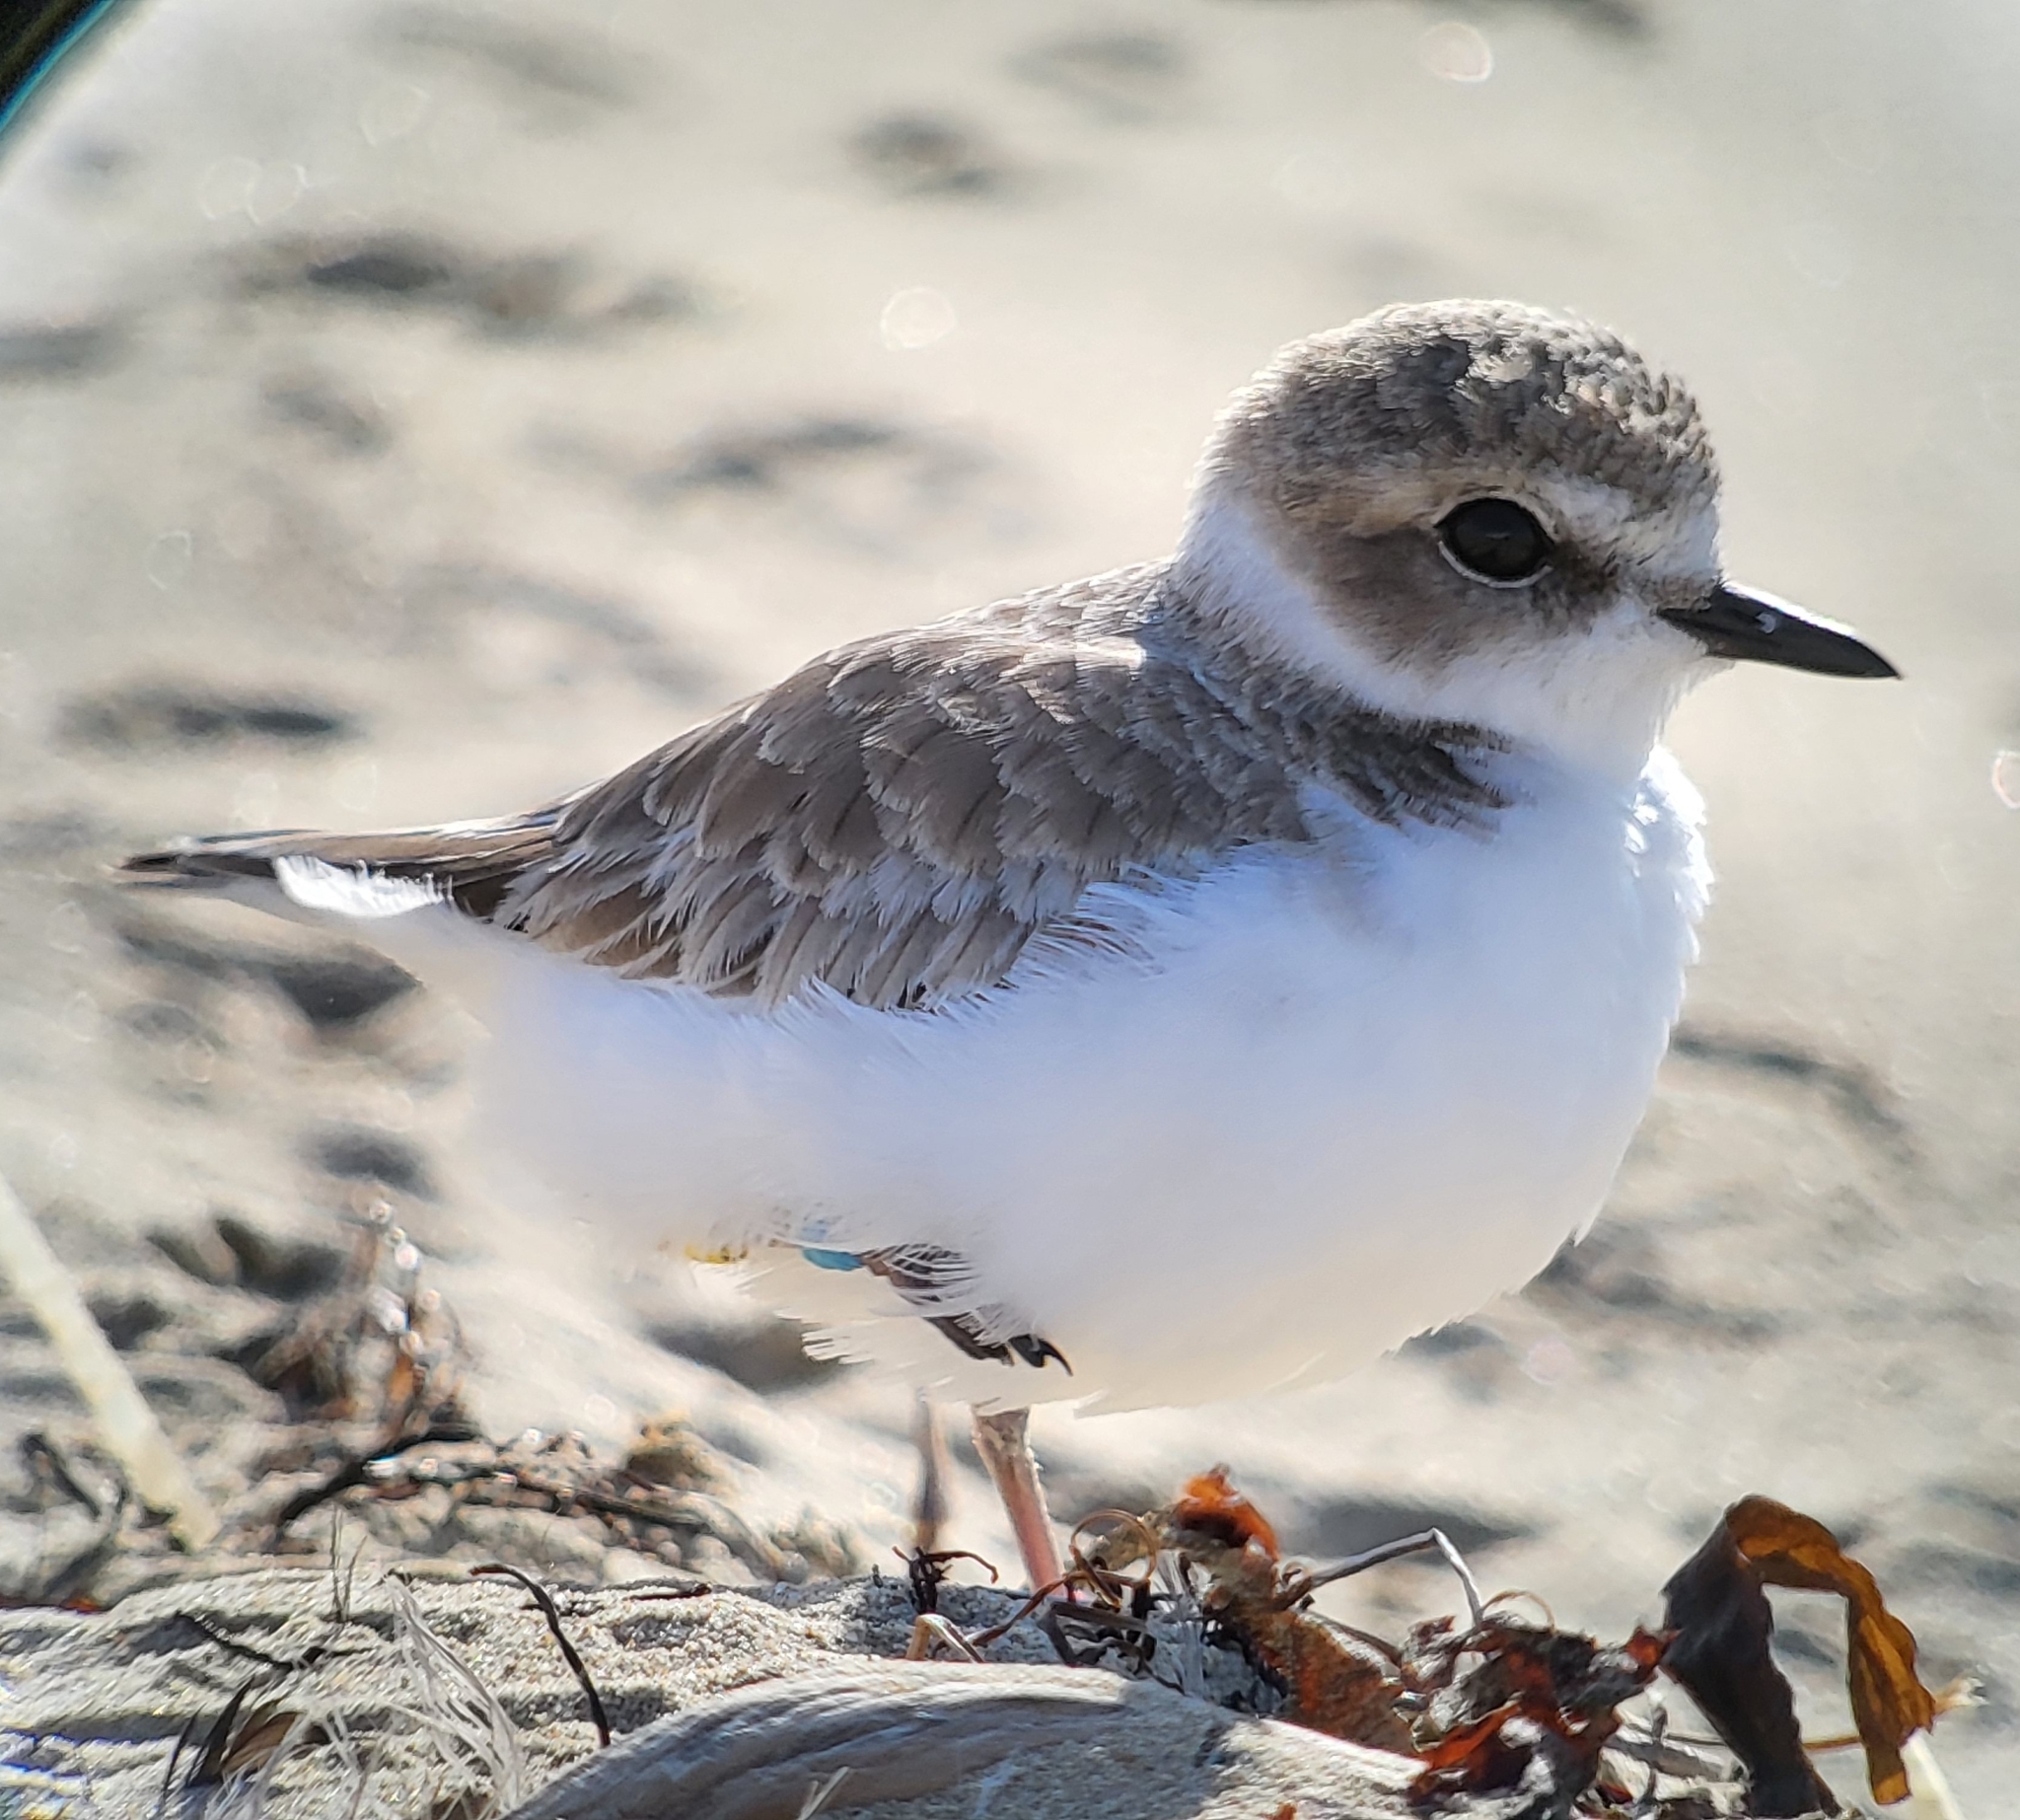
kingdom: Animalia
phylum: Chordata
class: Aves
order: Charadriiformes
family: Charadriidae
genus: Anarhynchus
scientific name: Anarhynchus
